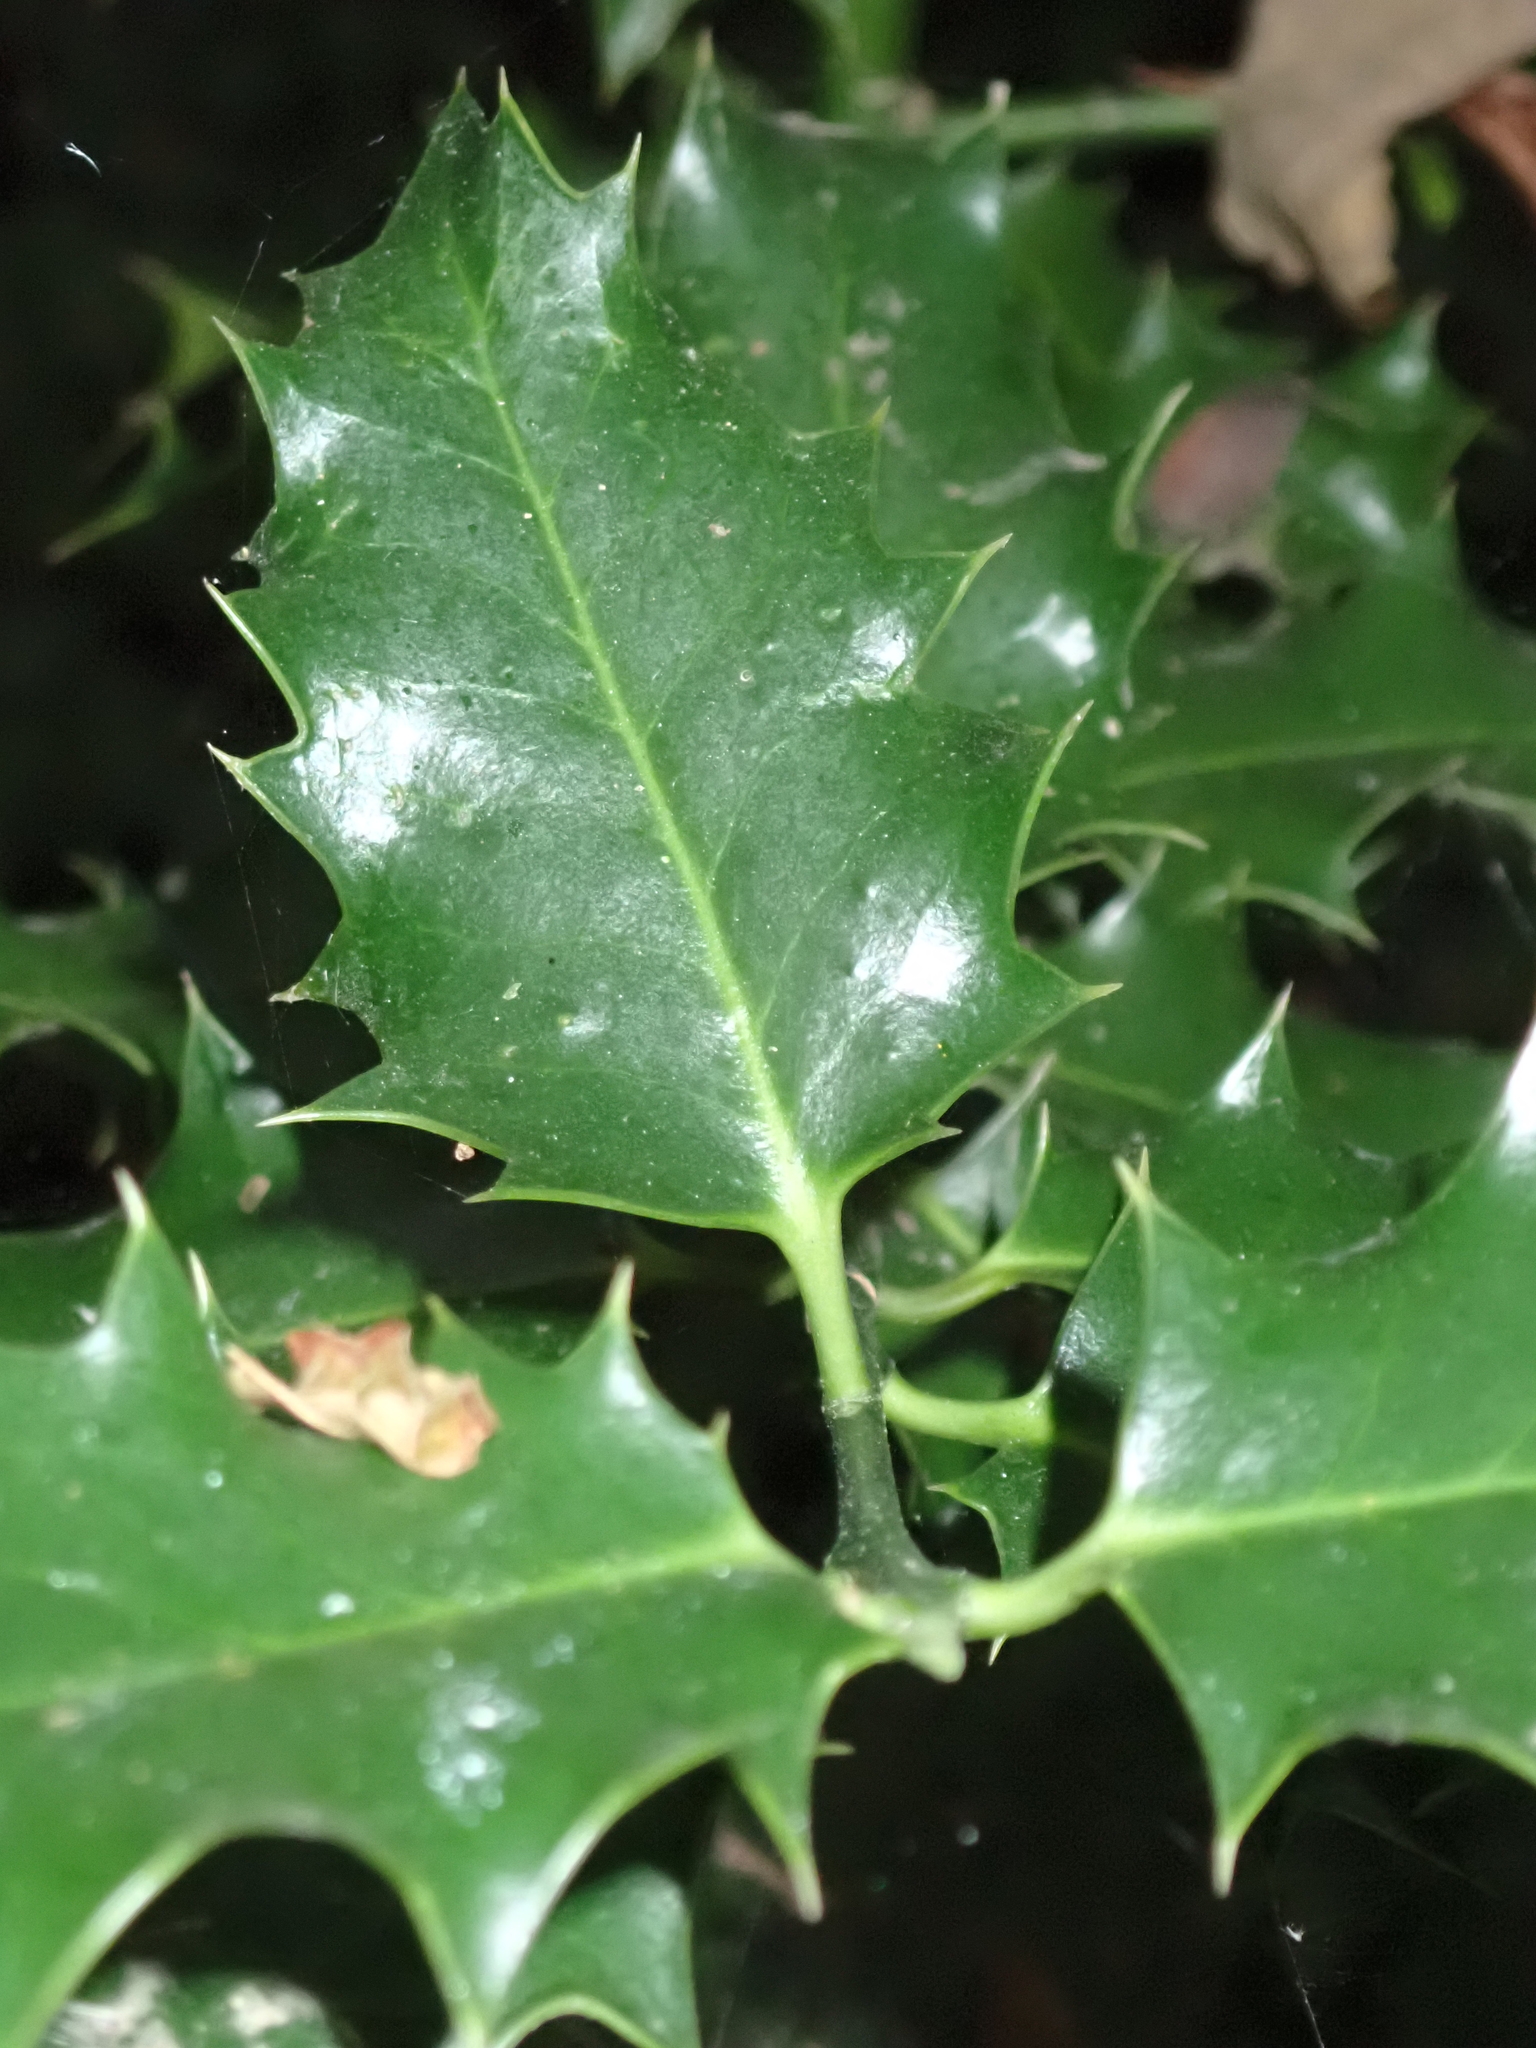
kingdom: Plantae
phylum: Tracheophyta
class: Magnoliopsida
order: Aquifoliales
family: Aquifoliaceae
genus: Ilex
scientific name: Ilex aquifolium
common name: English holly
